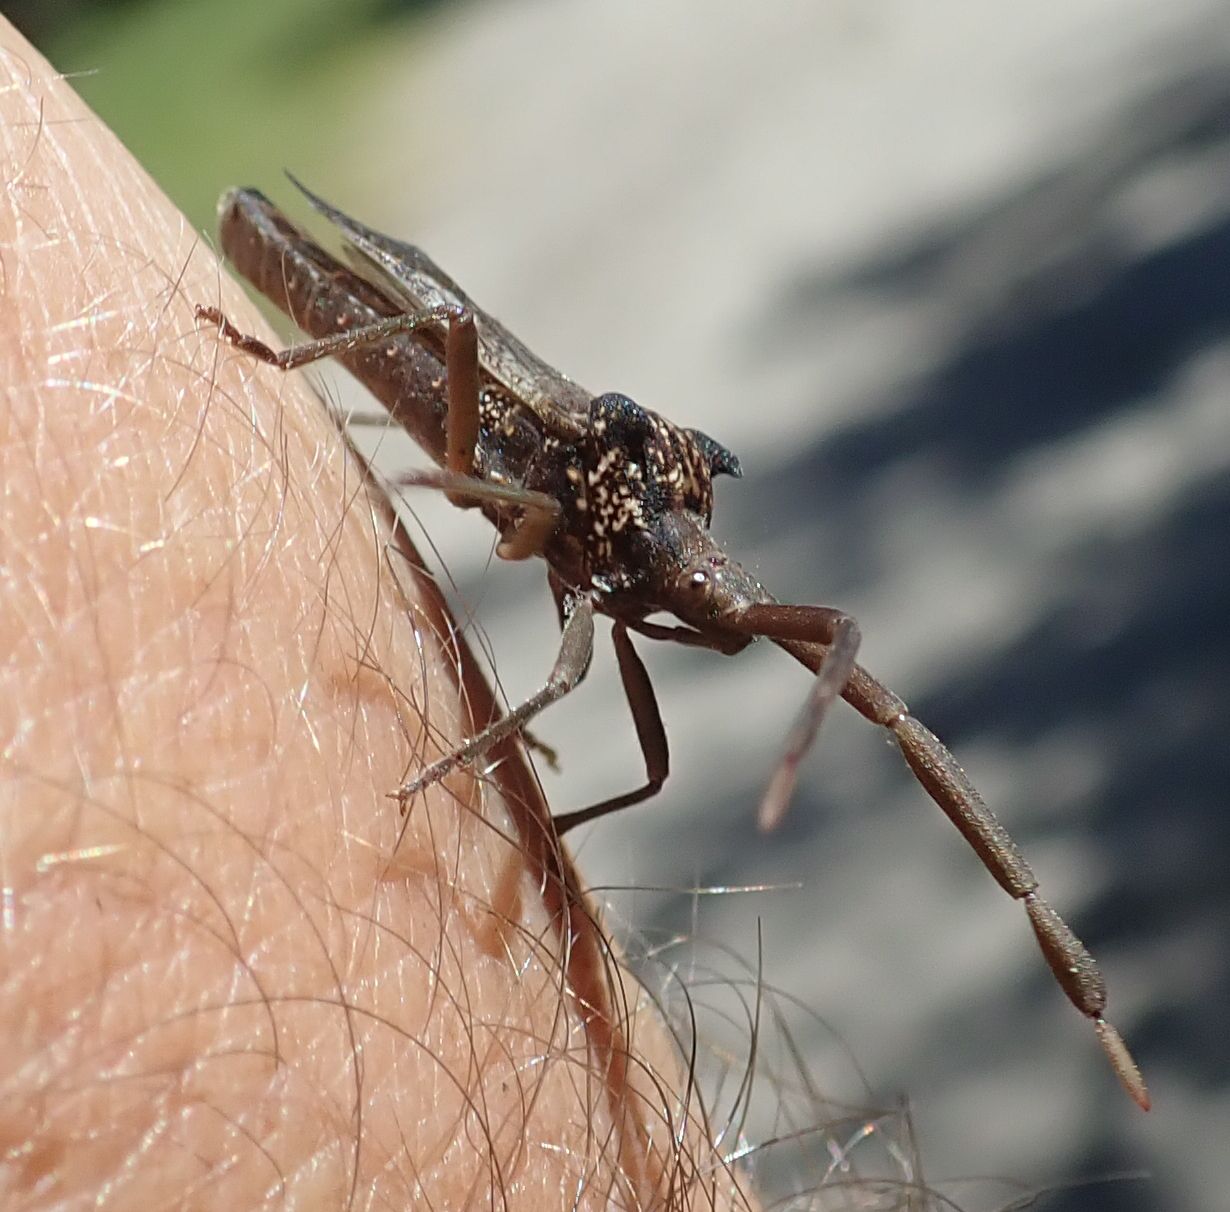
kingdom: Animalia
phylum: Arthropoda
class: Insecta
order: Hemiptera
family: Coreidae
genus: Prismatocerus
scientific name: Prismatocerus magnicornis
